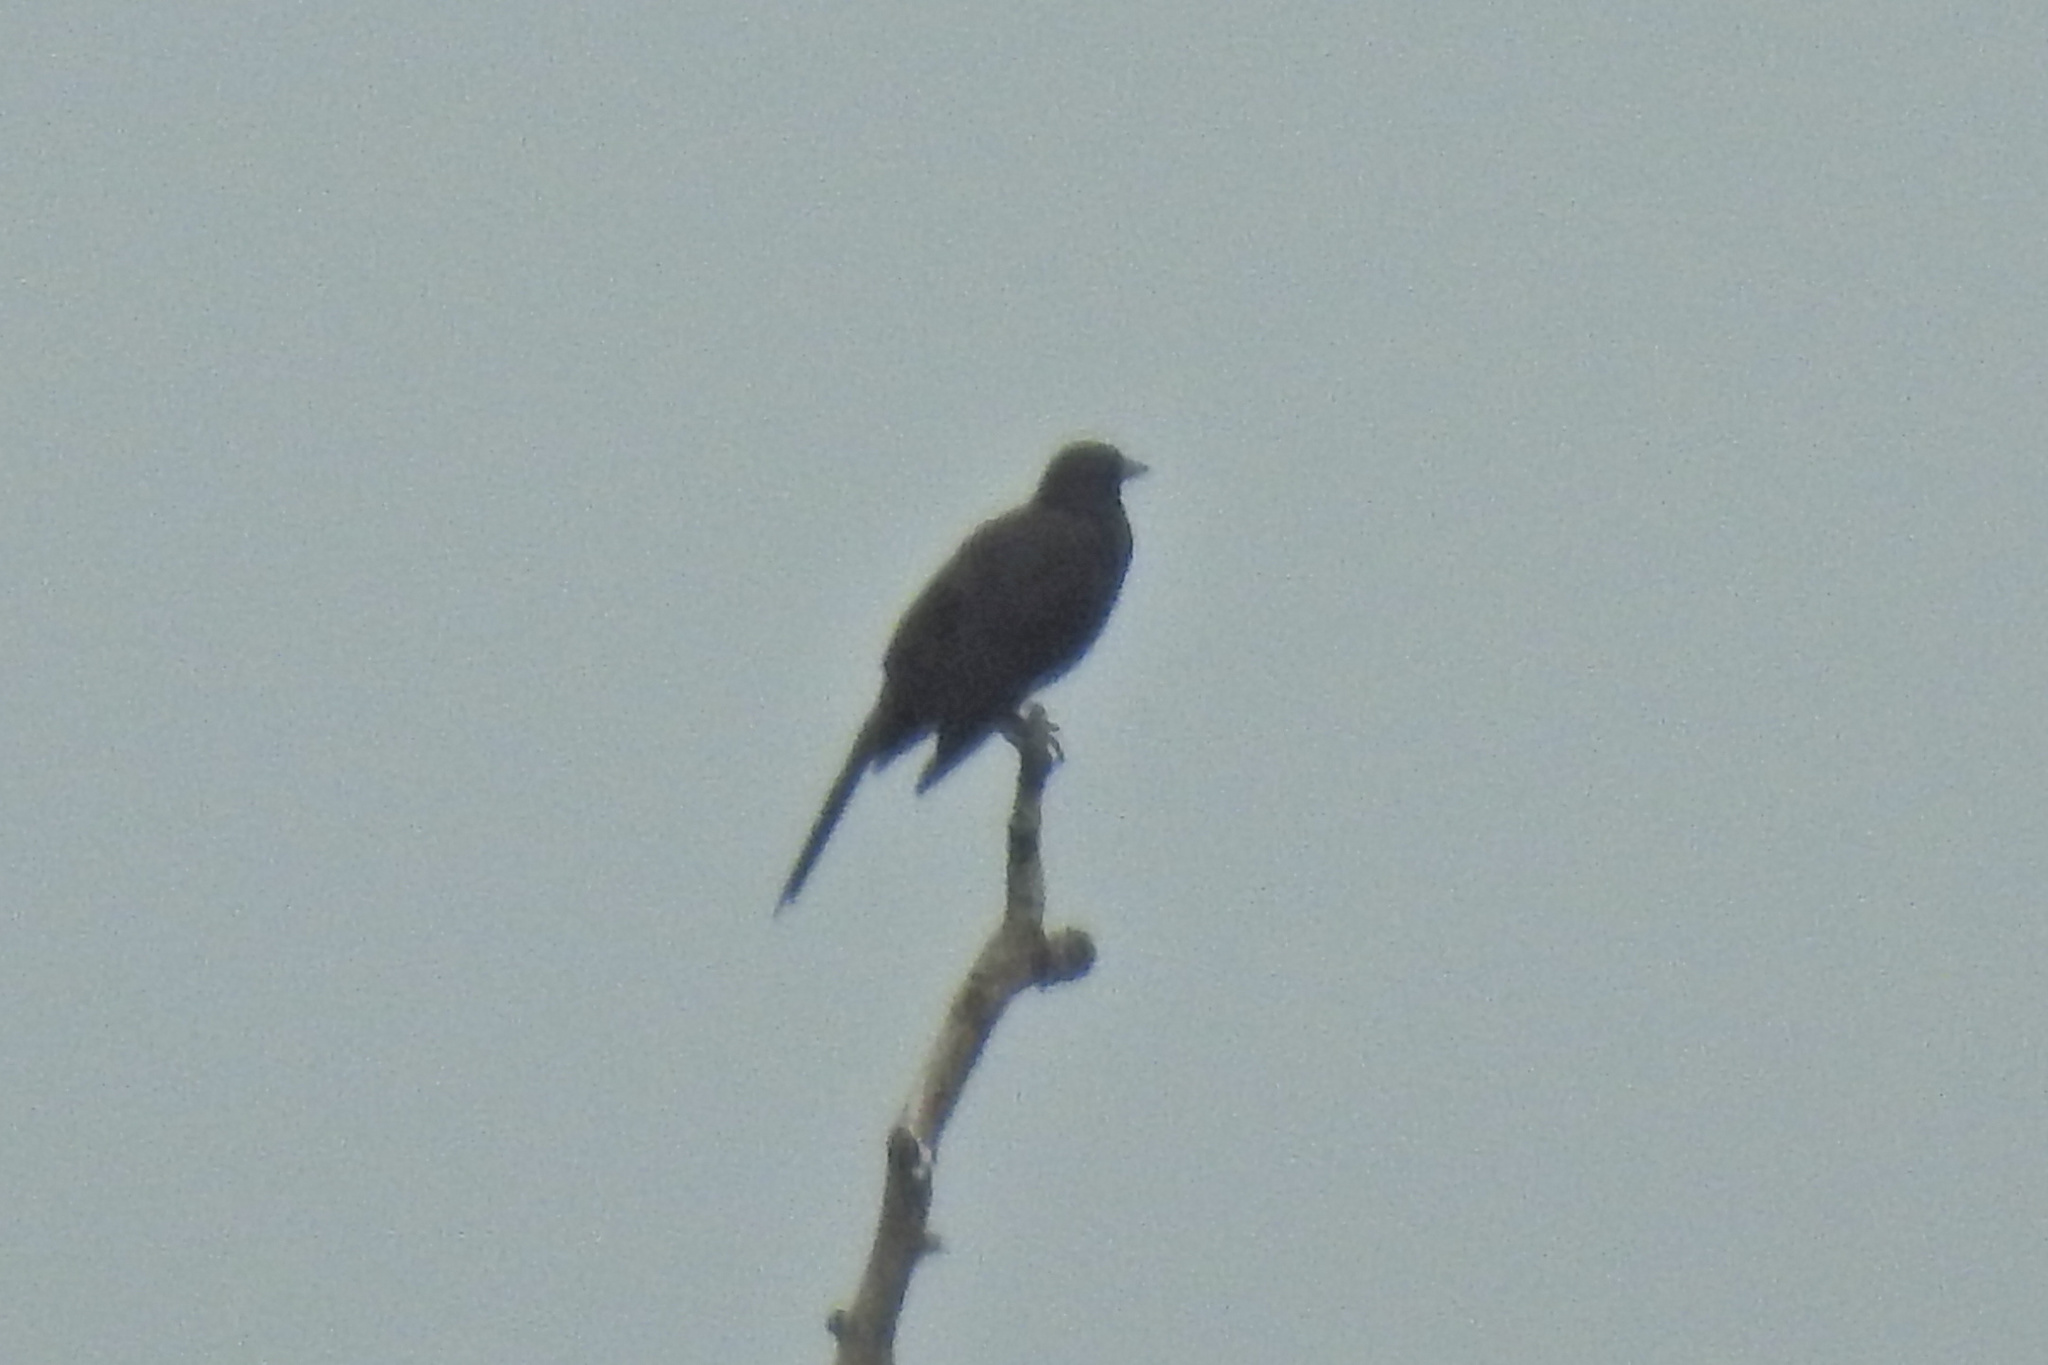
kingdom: Animalia
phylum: Chordata
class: Aves
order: Passeriformes
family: Icteridae
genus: Quiscalus
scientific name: Quiscalus quiscula
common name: Common grackle
